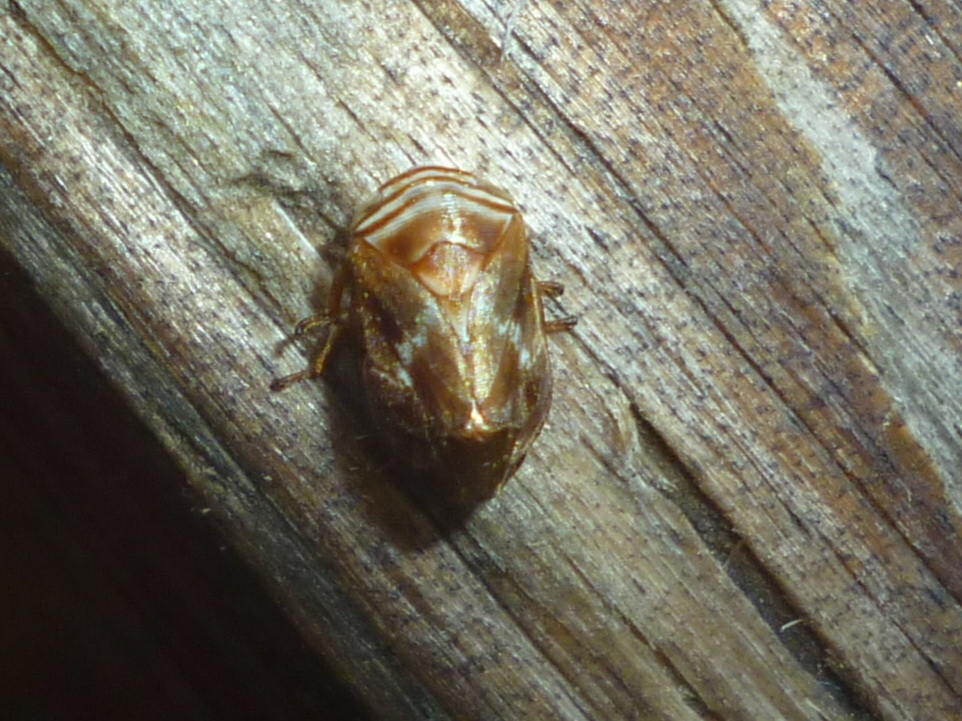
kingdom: Animalia
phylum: Arthropoda
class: Insecta
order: Hemiptera
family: Clastopteridae
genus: Clastoptera
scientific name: Clastoptera obtusa
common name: Alder spittlebug
